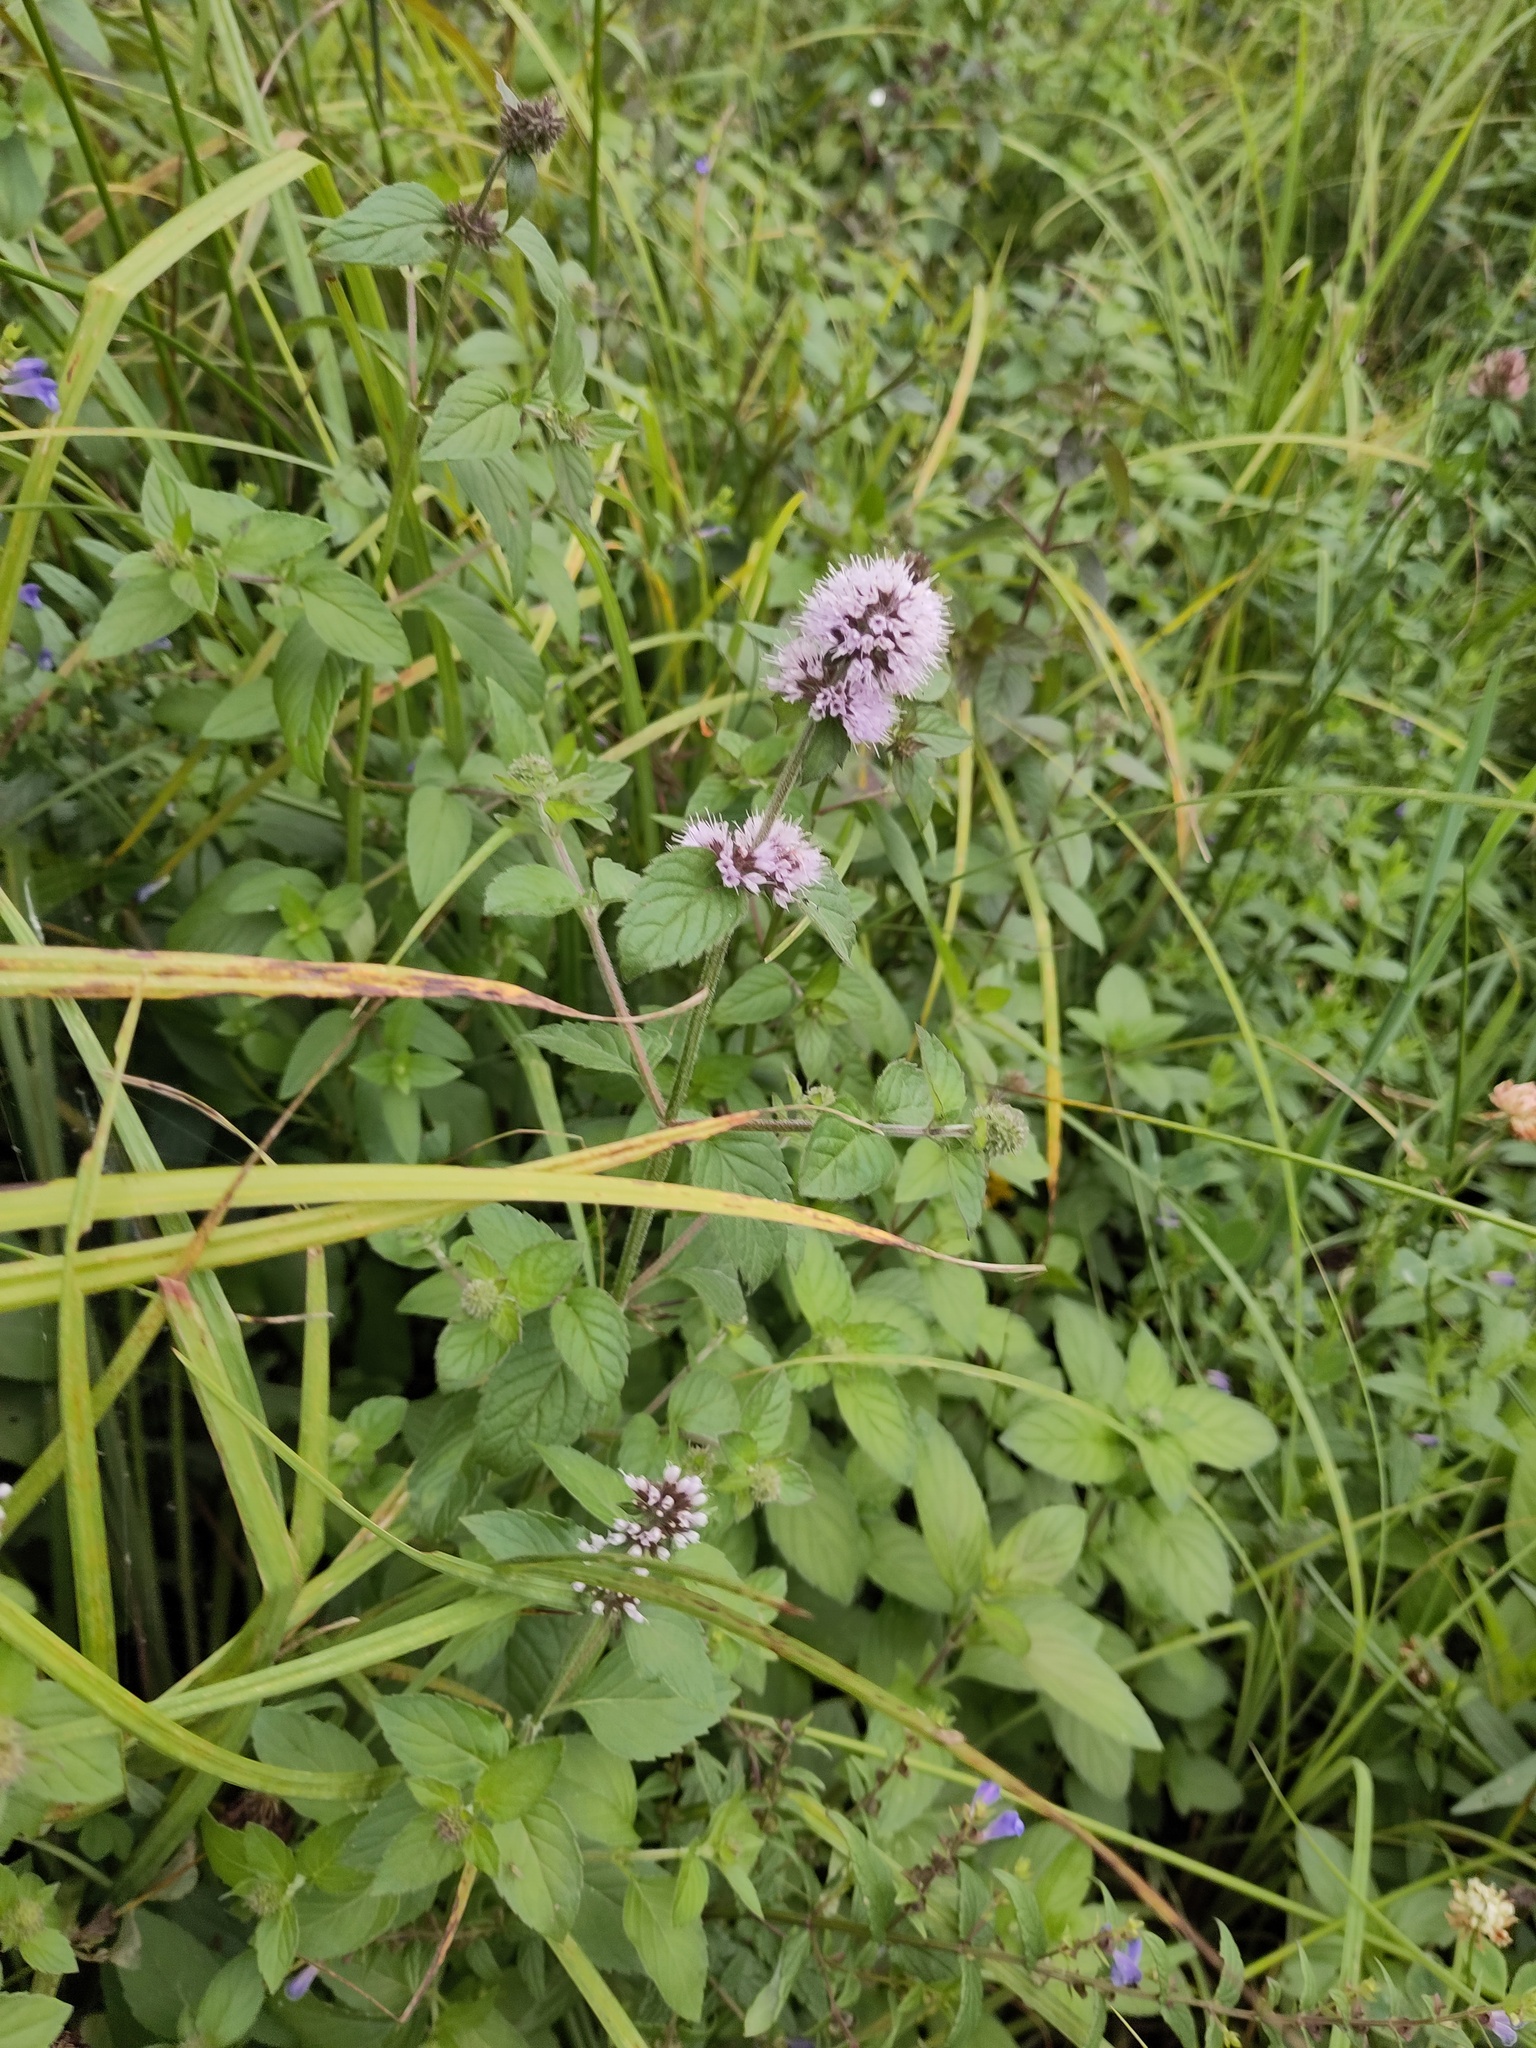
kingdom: Plantae
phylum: Tracheophyta
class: Magnoliopsida
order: Lamiales
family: Lamiaceae
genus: Mentha
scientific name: Mentha aquatica
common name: Water mint
